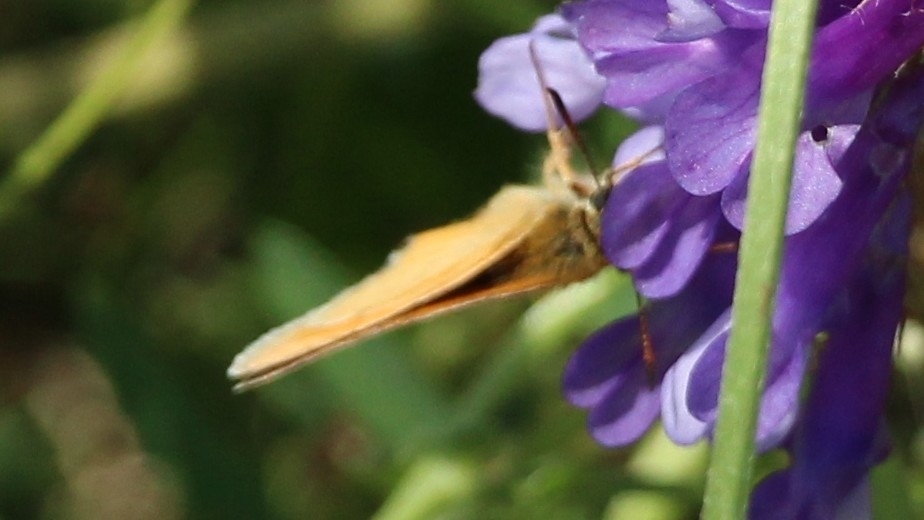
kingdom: Animalia
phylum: Arthropoda
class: Insecta
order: Lepidoptera
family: Hesperiidae
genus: Thymelicus
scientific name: Thymelicus lineola
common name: Essex skipper
